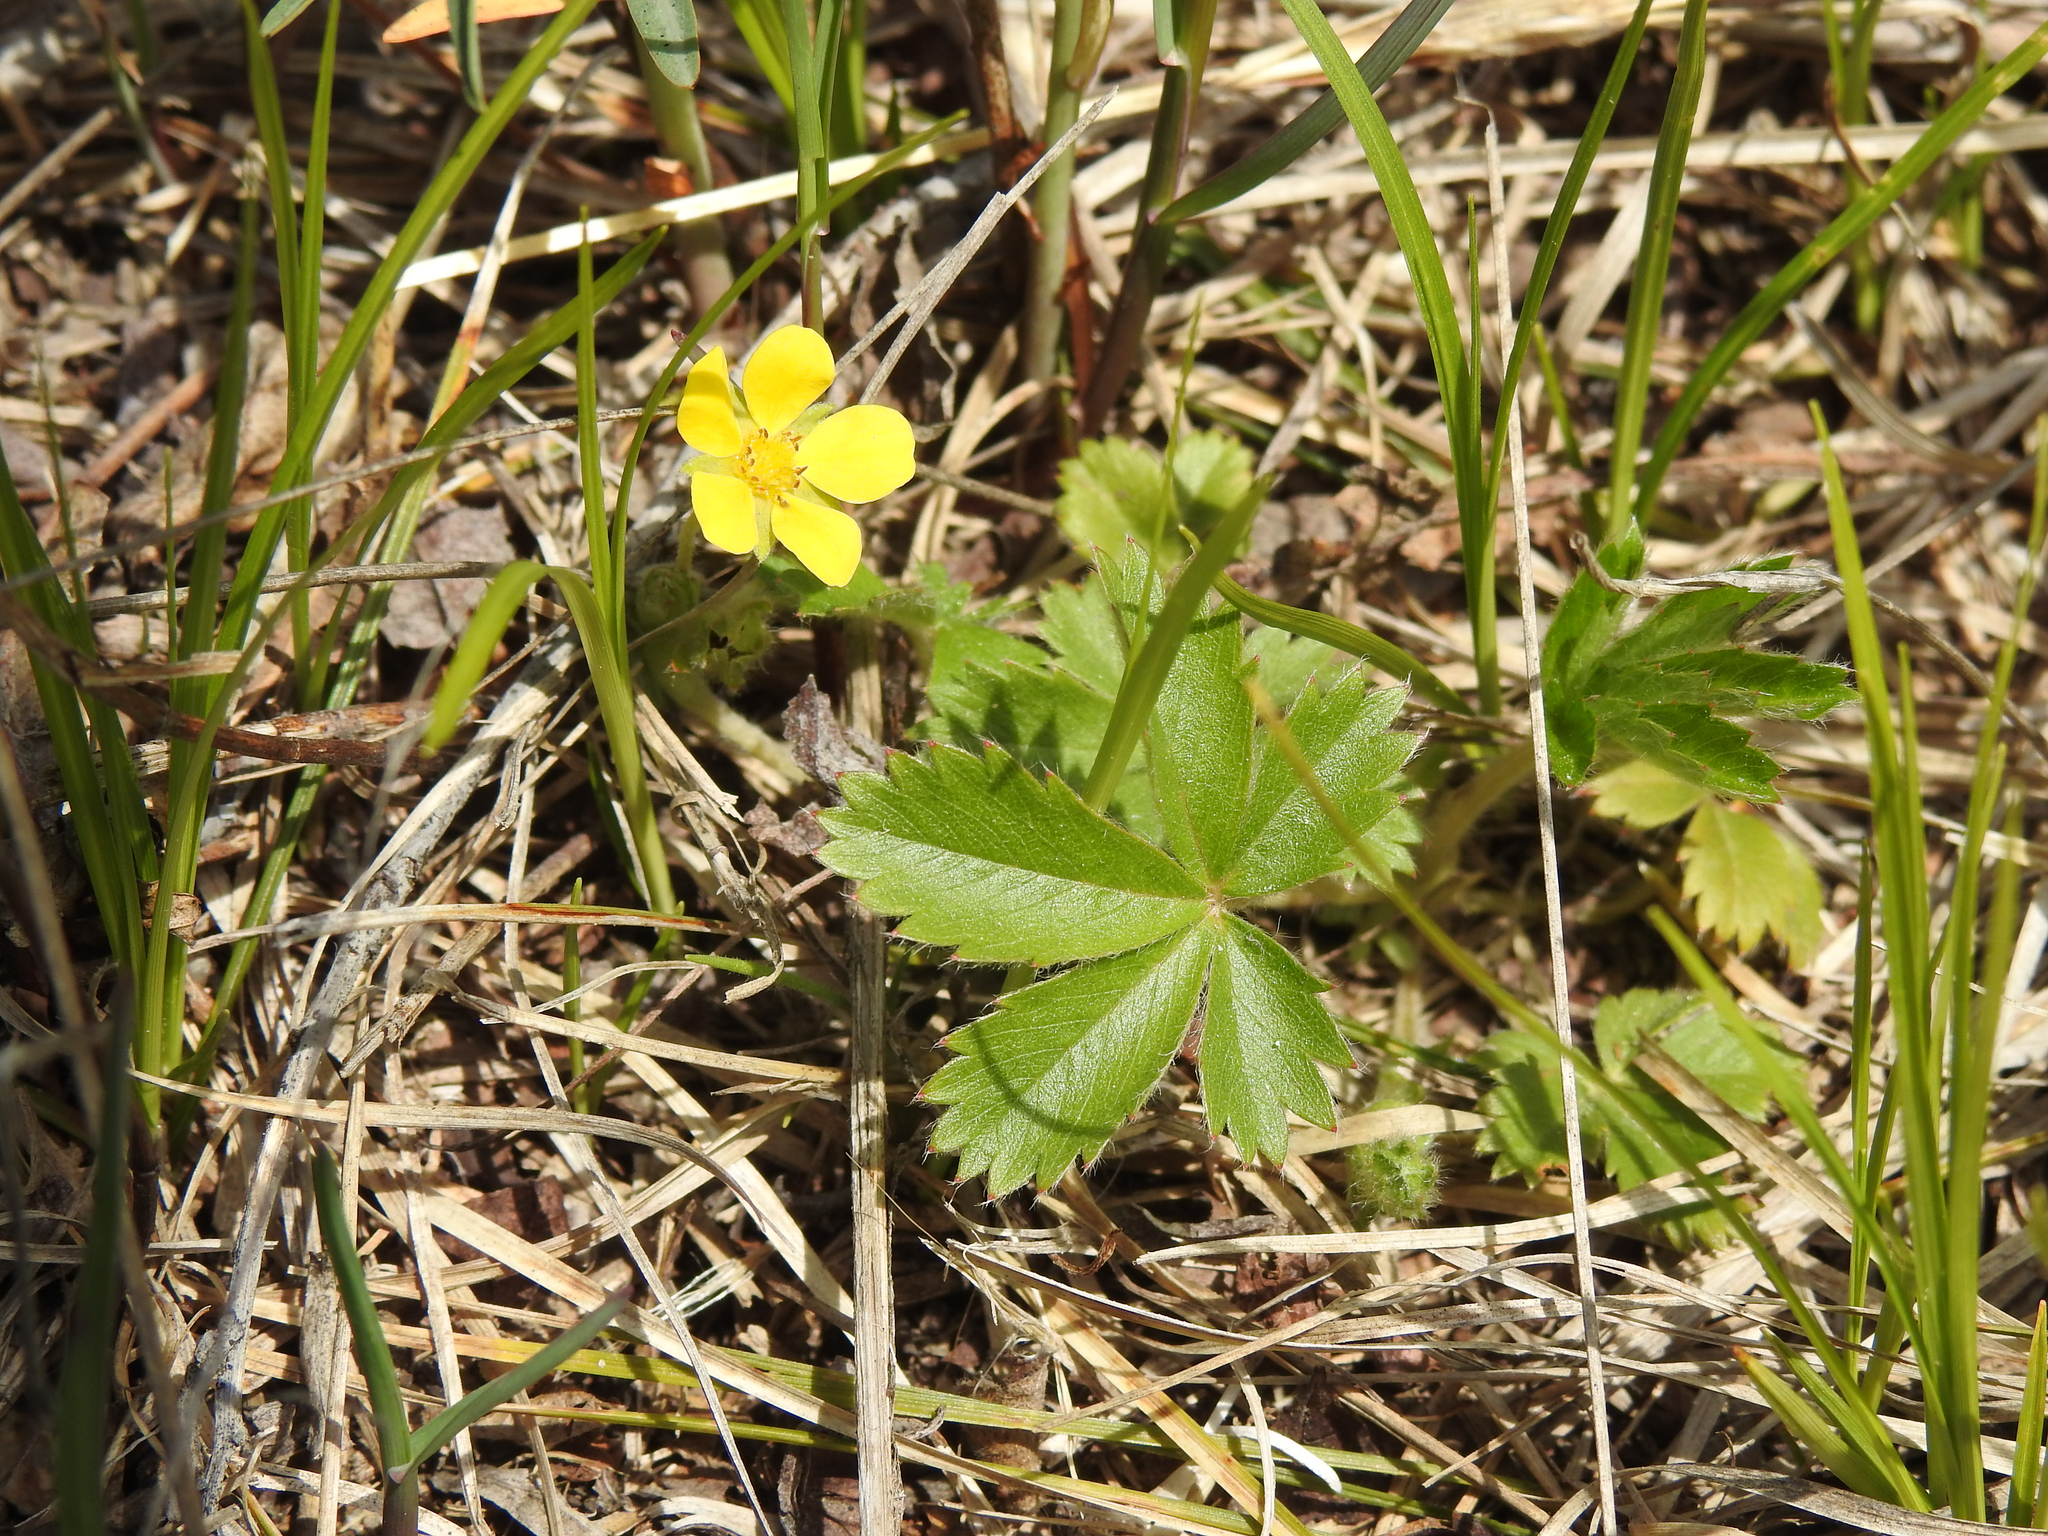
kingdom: Plantae
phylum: Tracheophyta
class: Magnoliopsida
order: Rosales
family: Rosaceae
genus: Potentilla
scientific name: Potentilla canadensis
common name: Canada cinquefoil
